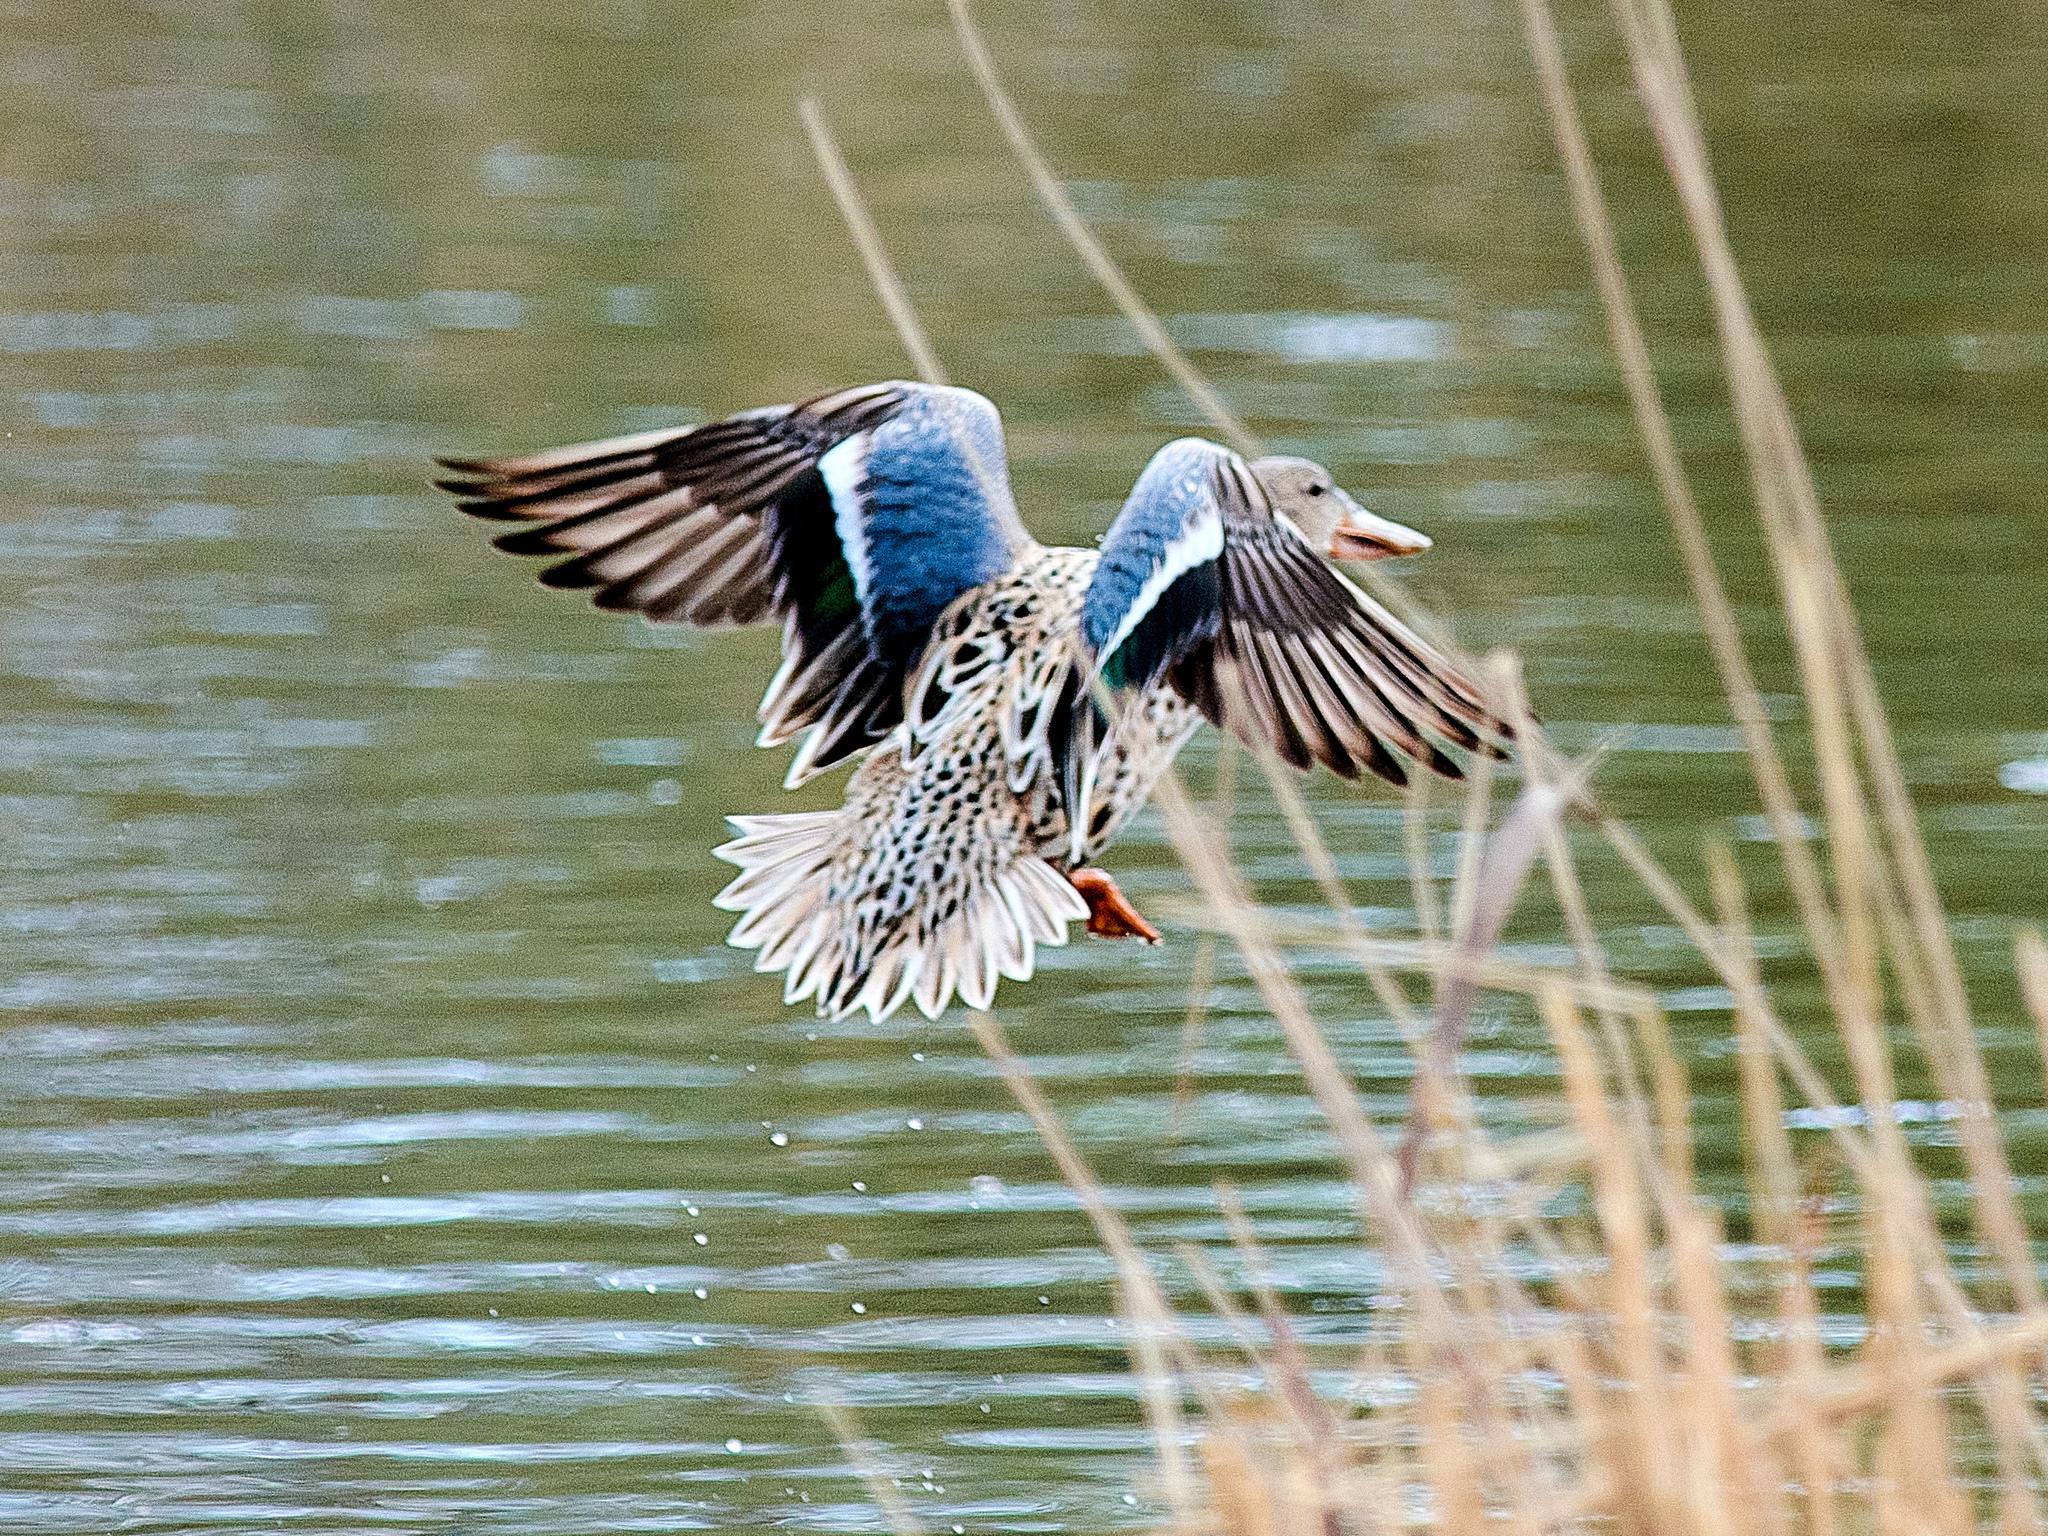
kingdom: Animalia
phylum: Chordata
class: Aves
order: Anseriformes
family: Anatidae
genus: Spatula
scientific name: Spatula clypeata
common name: Northern shoveler
